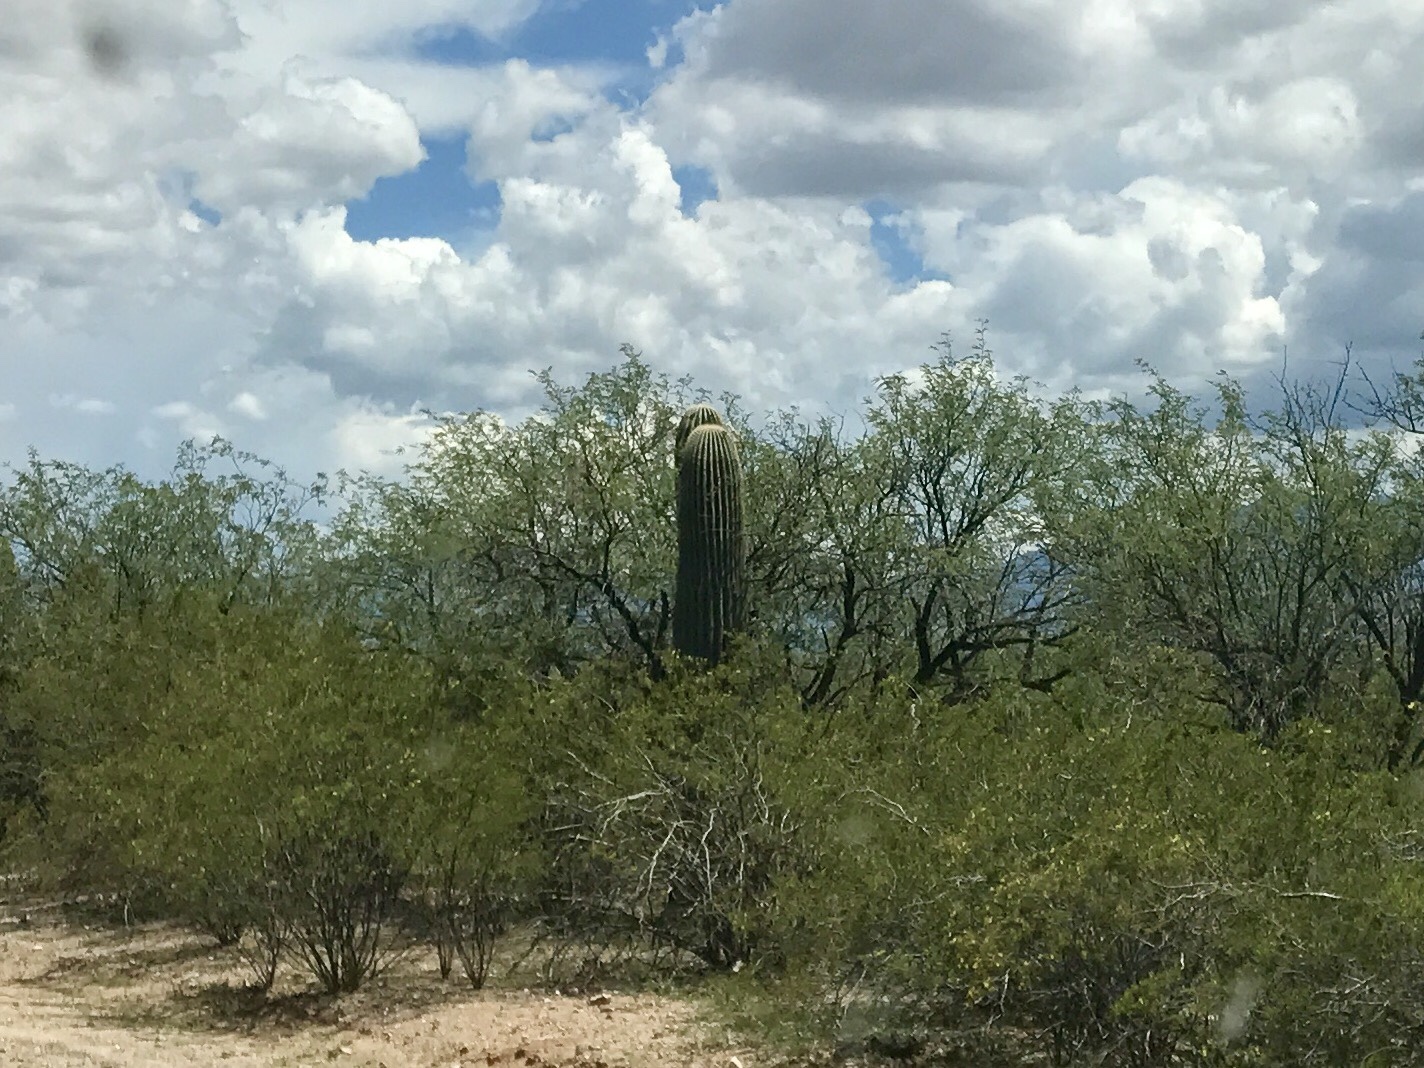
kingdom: Plantae
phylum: Tracheophyta
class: Magnoliopsida
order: Caryophyllales
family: Cactaceae
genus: Carnegiea
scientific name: Carnegiea gigantea
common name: Saguaro
